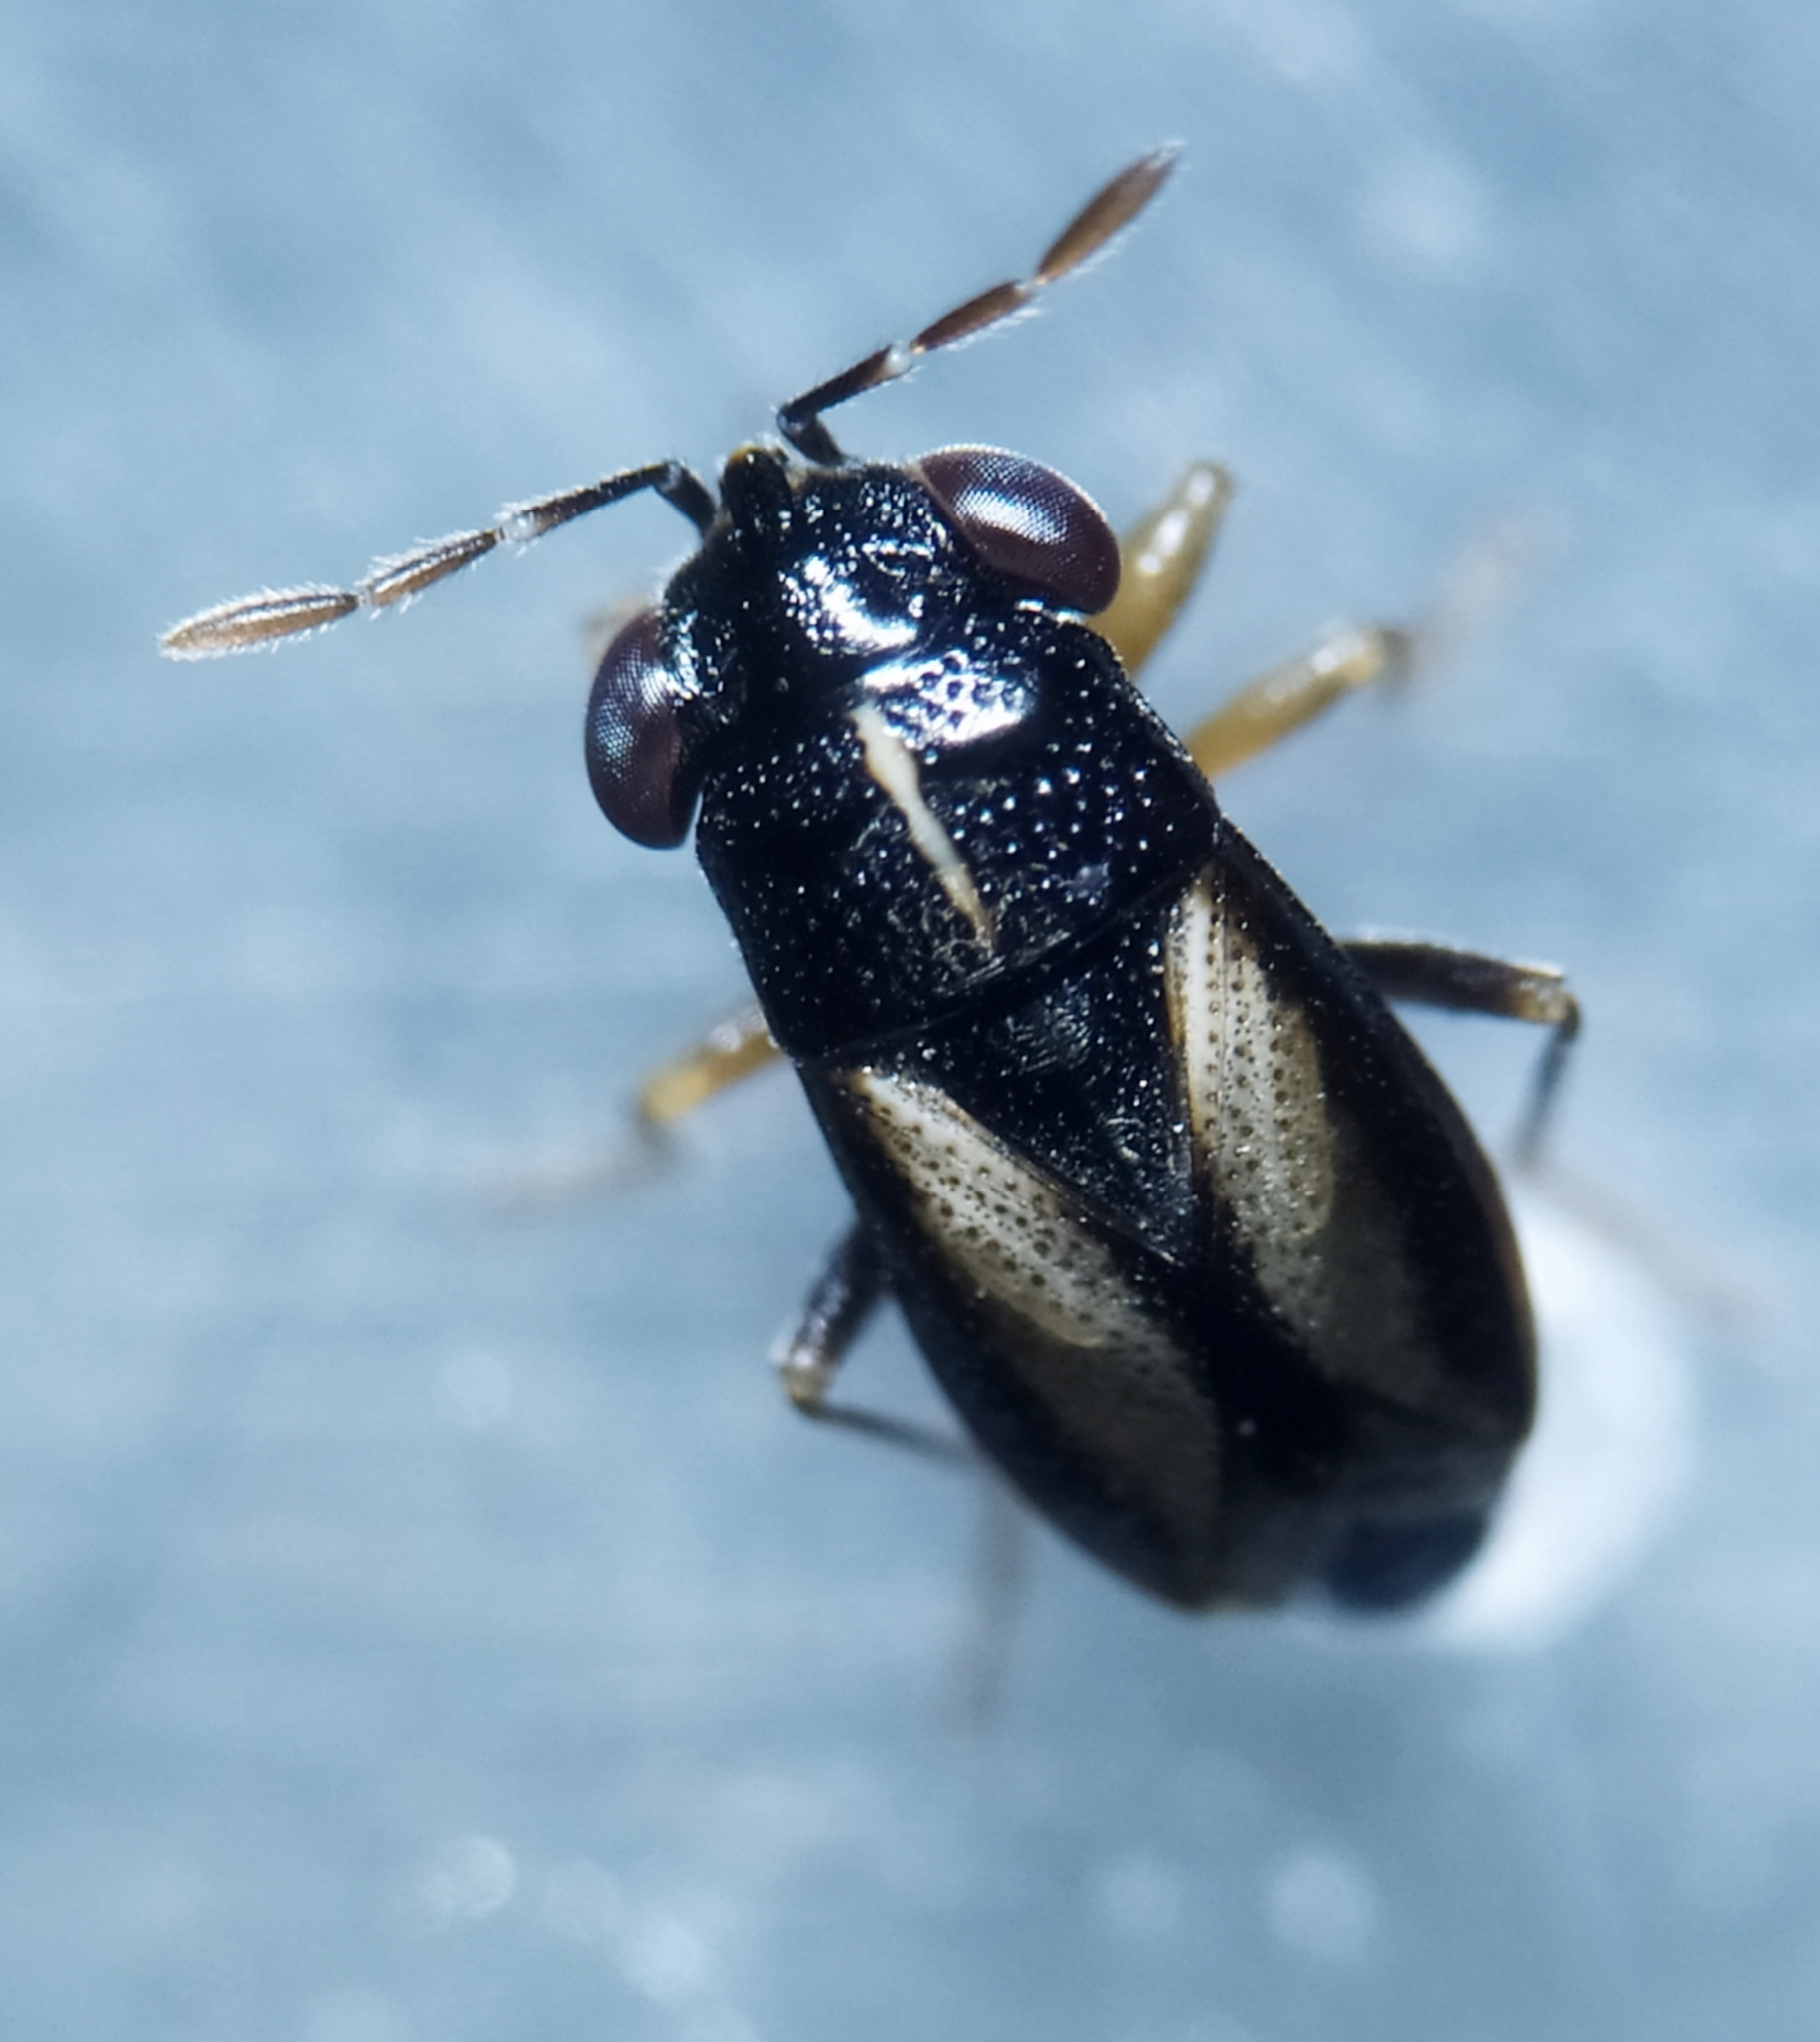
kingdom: Animalia
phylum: Arthropoda
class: Insecta
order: Hemiptera
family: Geocoridae
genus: Geocoris
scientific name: Geocoris ater
